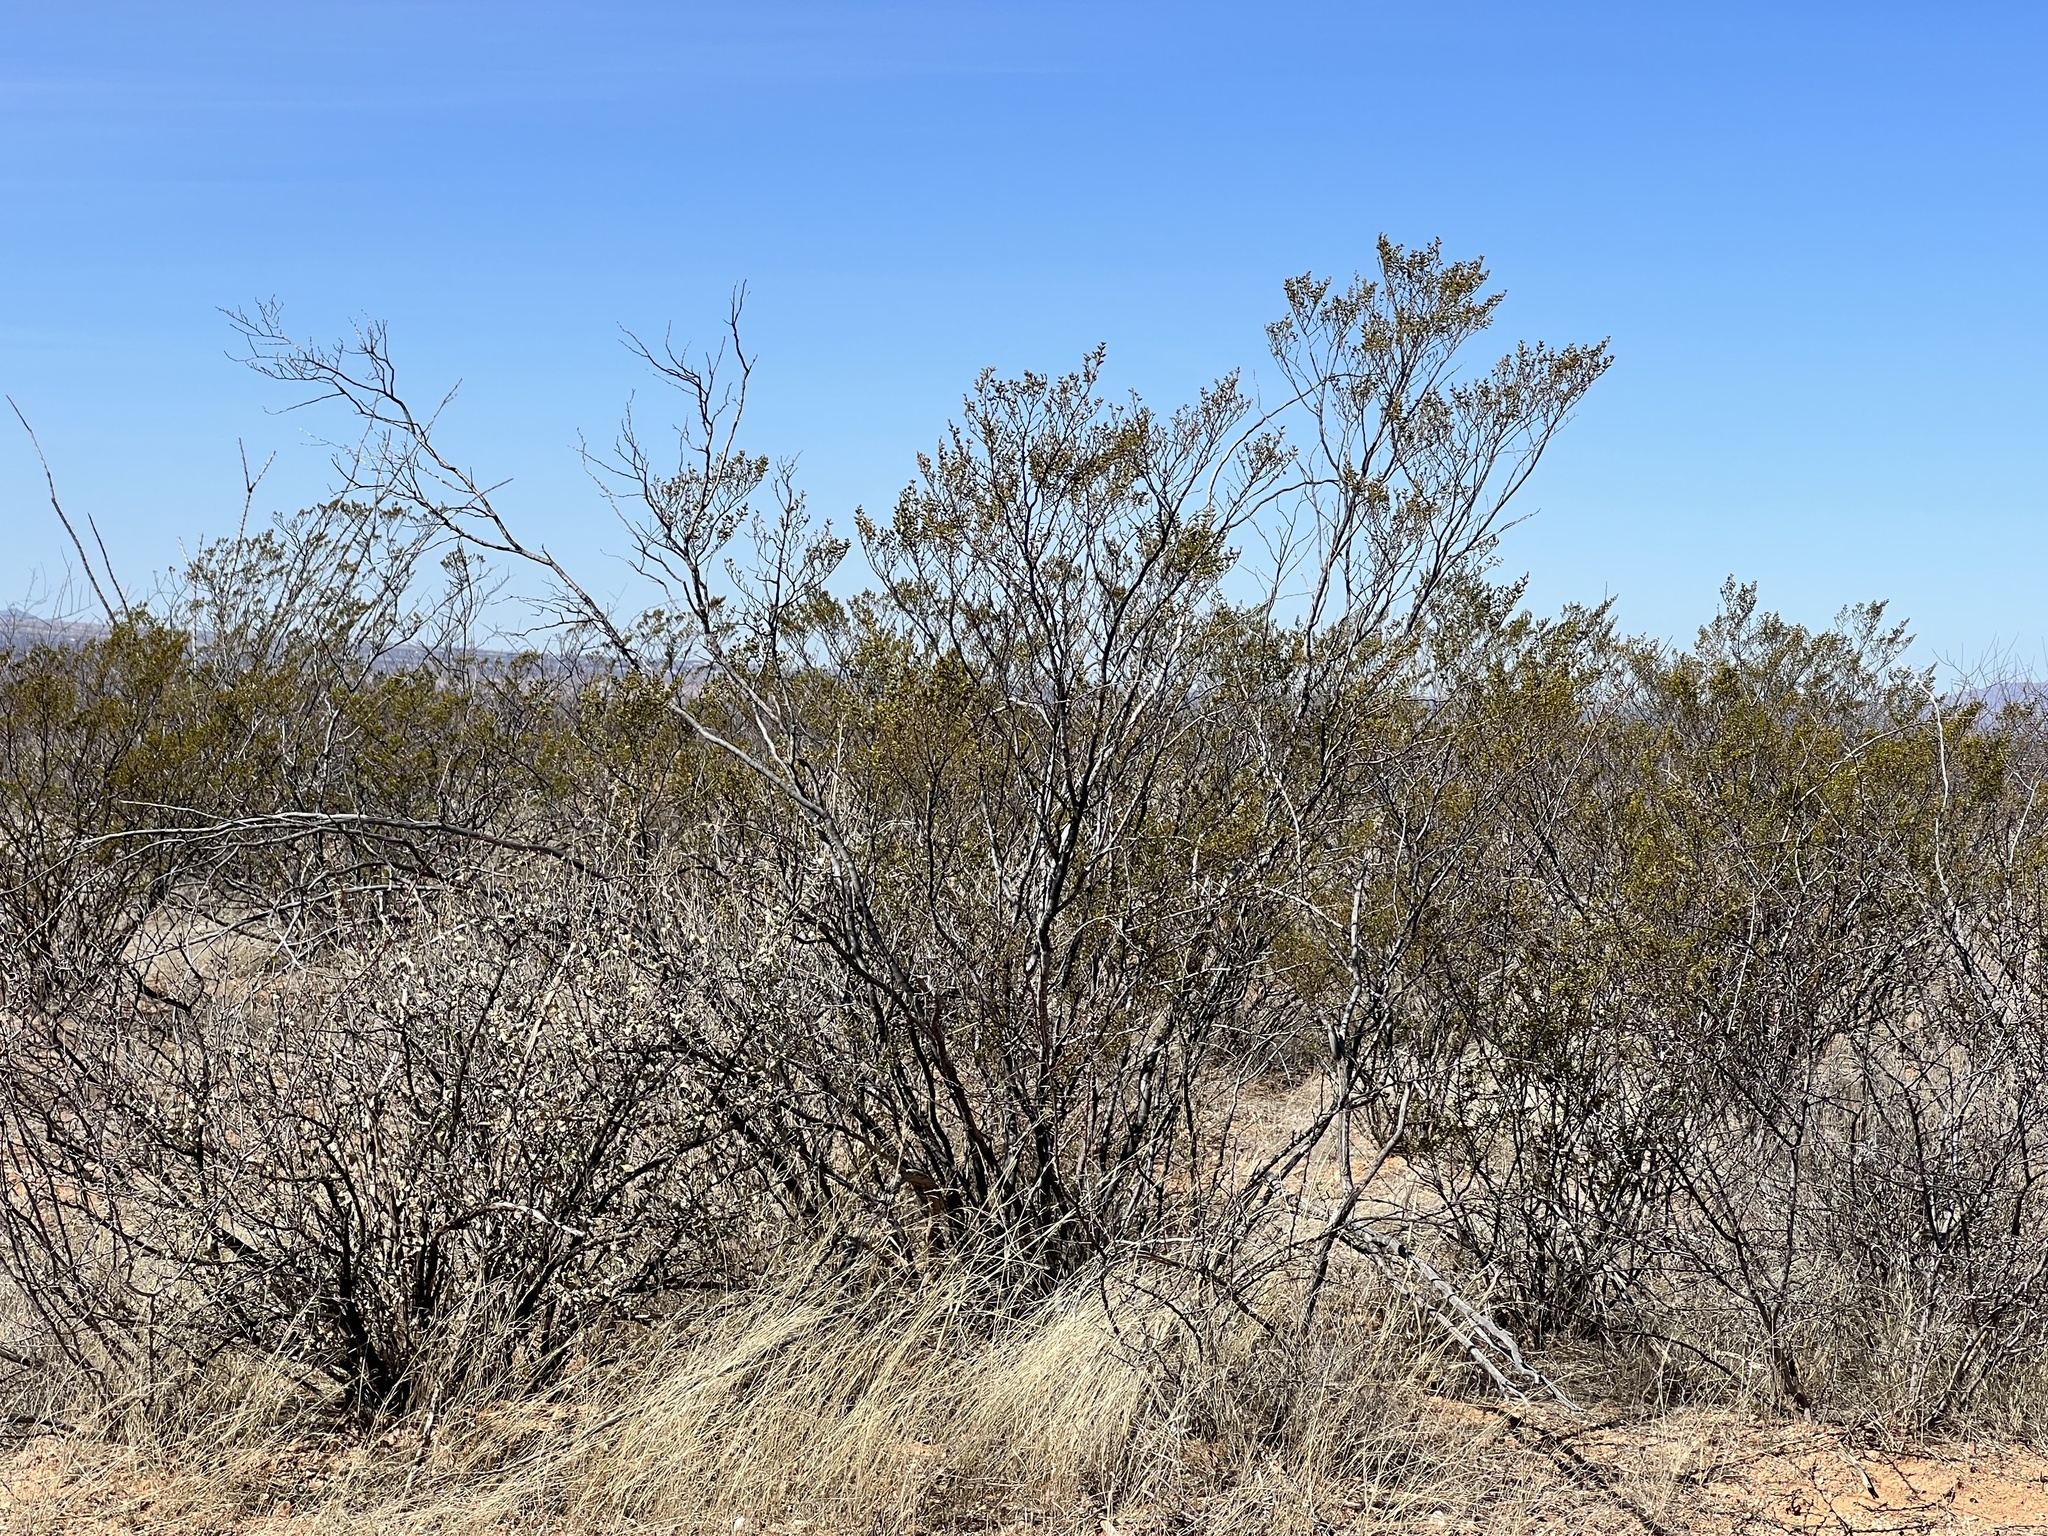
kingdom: Plantae
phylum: Tracheophyta
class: Magnoliopsida
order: Zygophyllales
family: Zygophyllaceae
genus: Larrea
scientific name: Larrea tridentata
